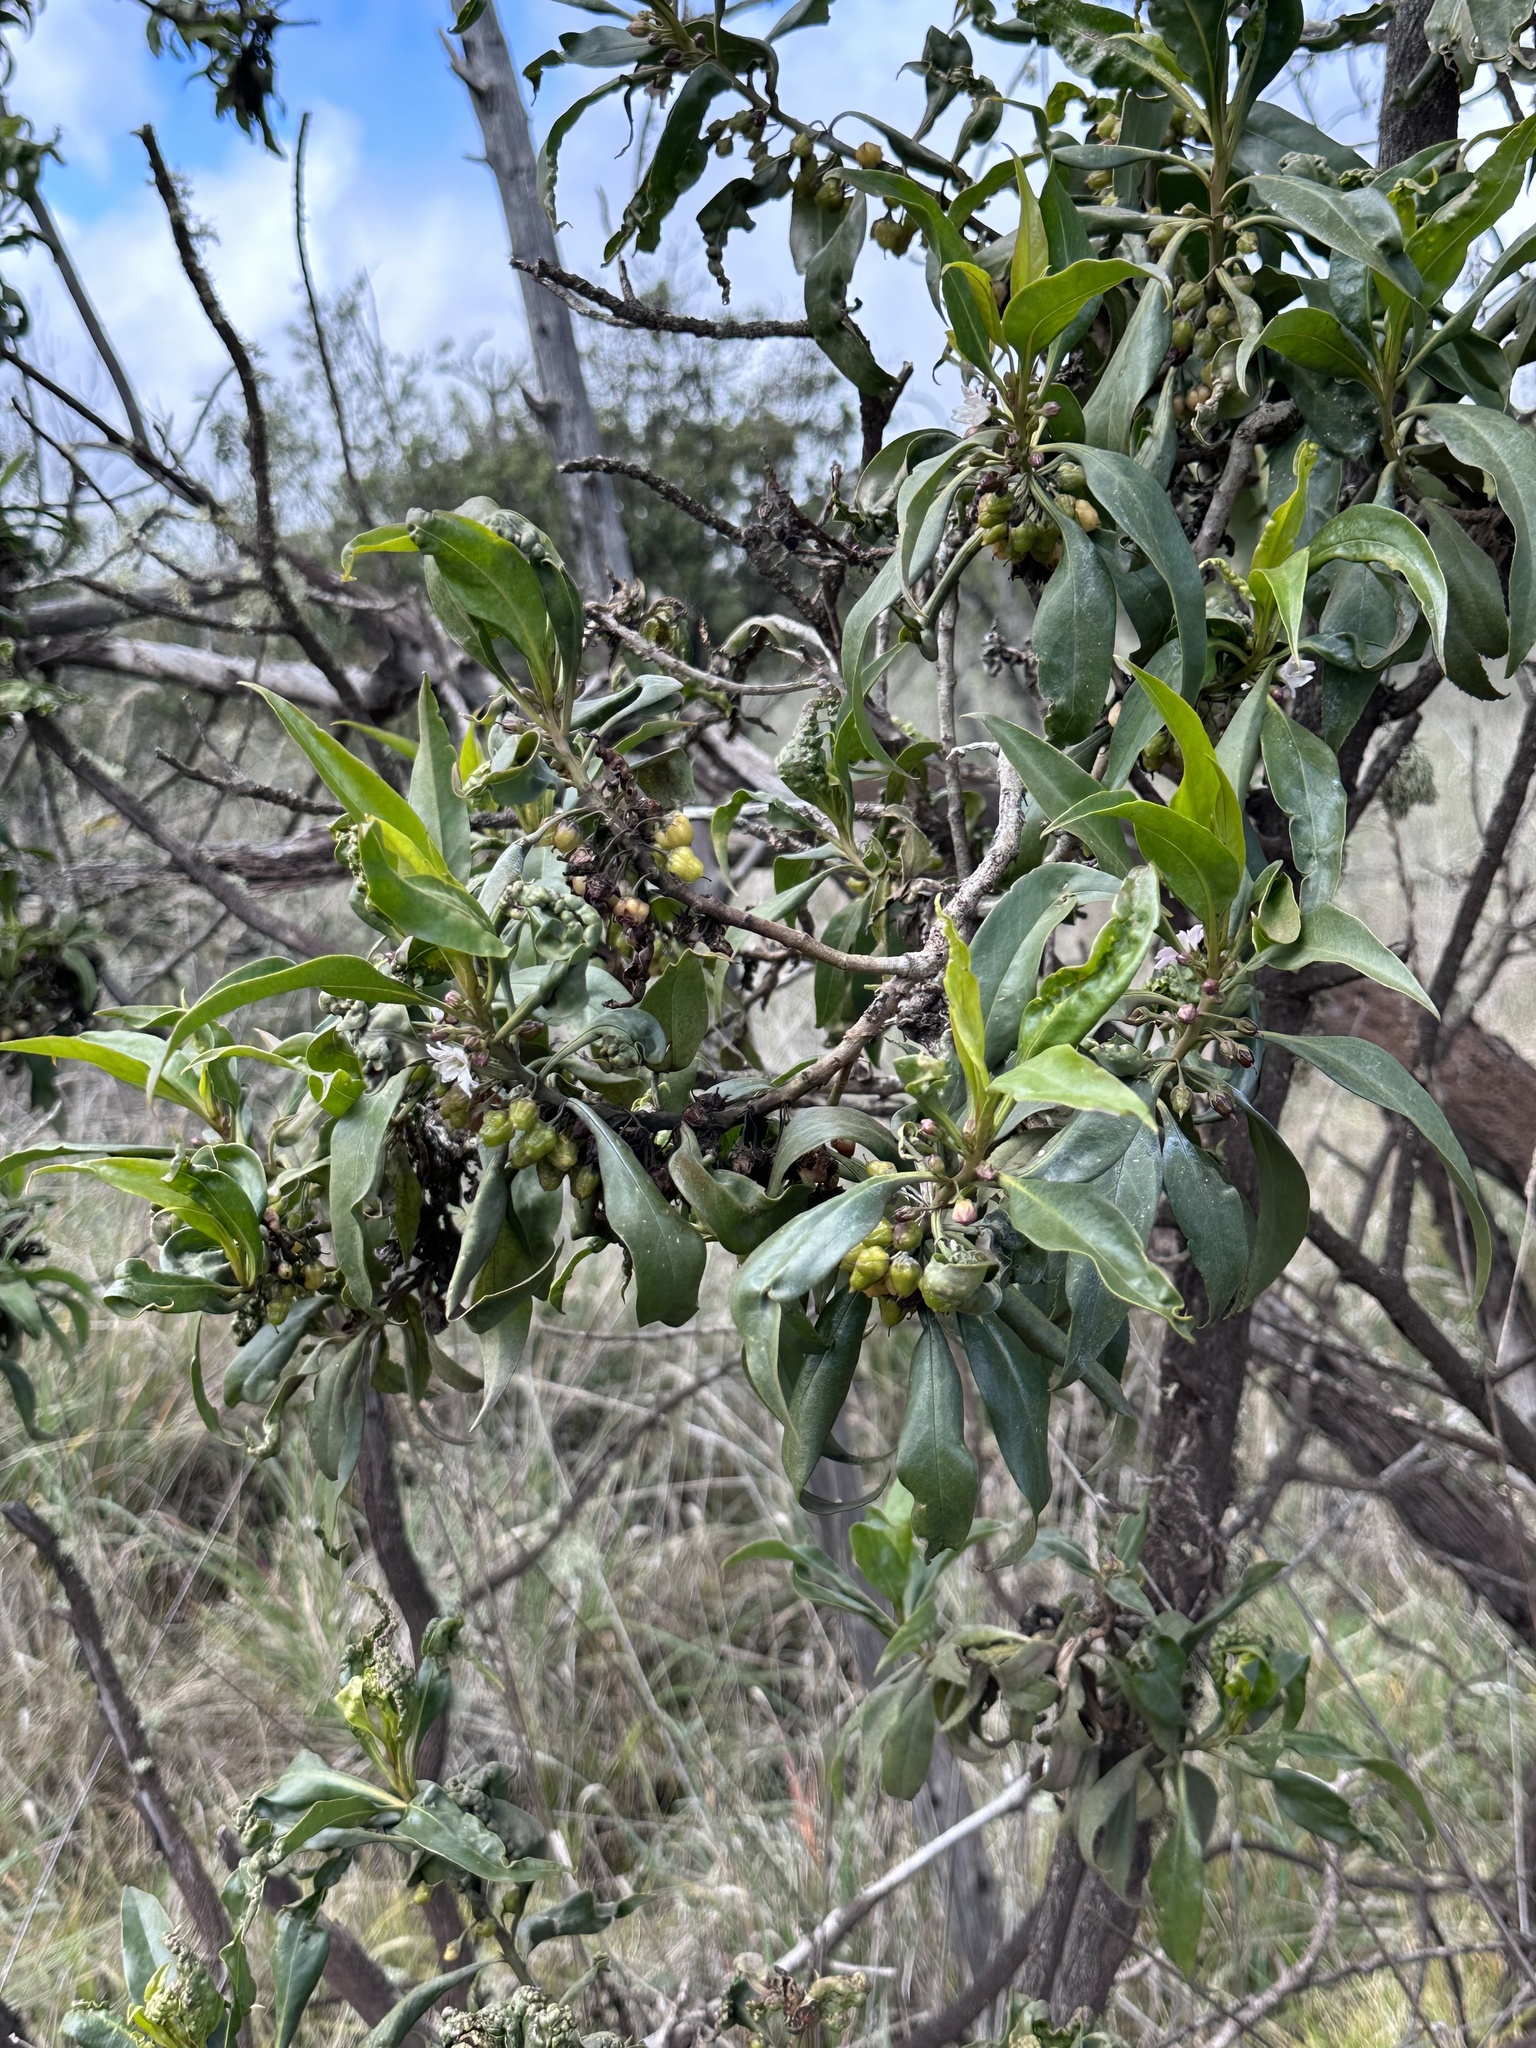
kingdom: Plantae
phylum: Tracheophyta
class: Magnoliopsida
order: Lamiales
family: Scrophulariaceae
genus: Myoporum
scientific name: Myoporum sandwicense
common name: Bastard-sandalwood
